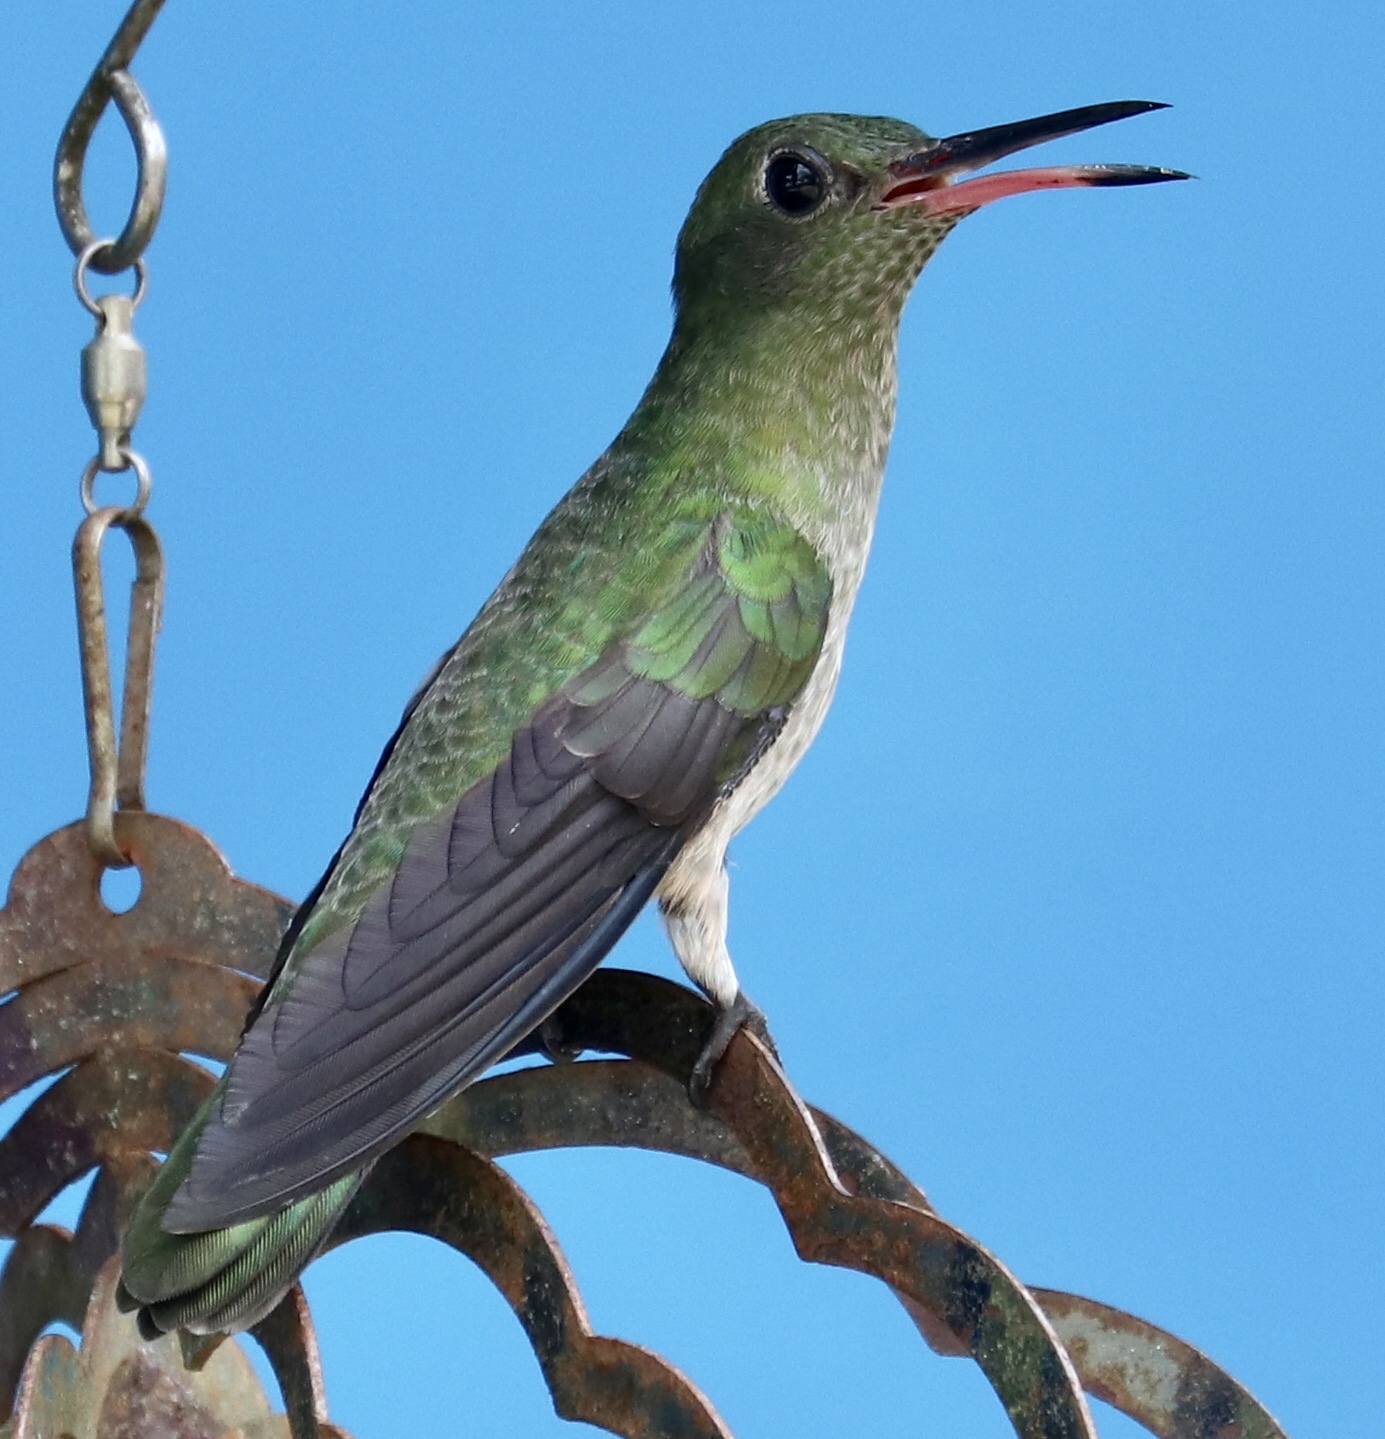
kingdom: Animalia
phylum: Chordata
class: Aves
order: Apodiformes
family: Trochilidae
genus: Phaeochroa
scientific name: Phaeochroa cuvierii
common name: Scaly-breasted hummingbird
